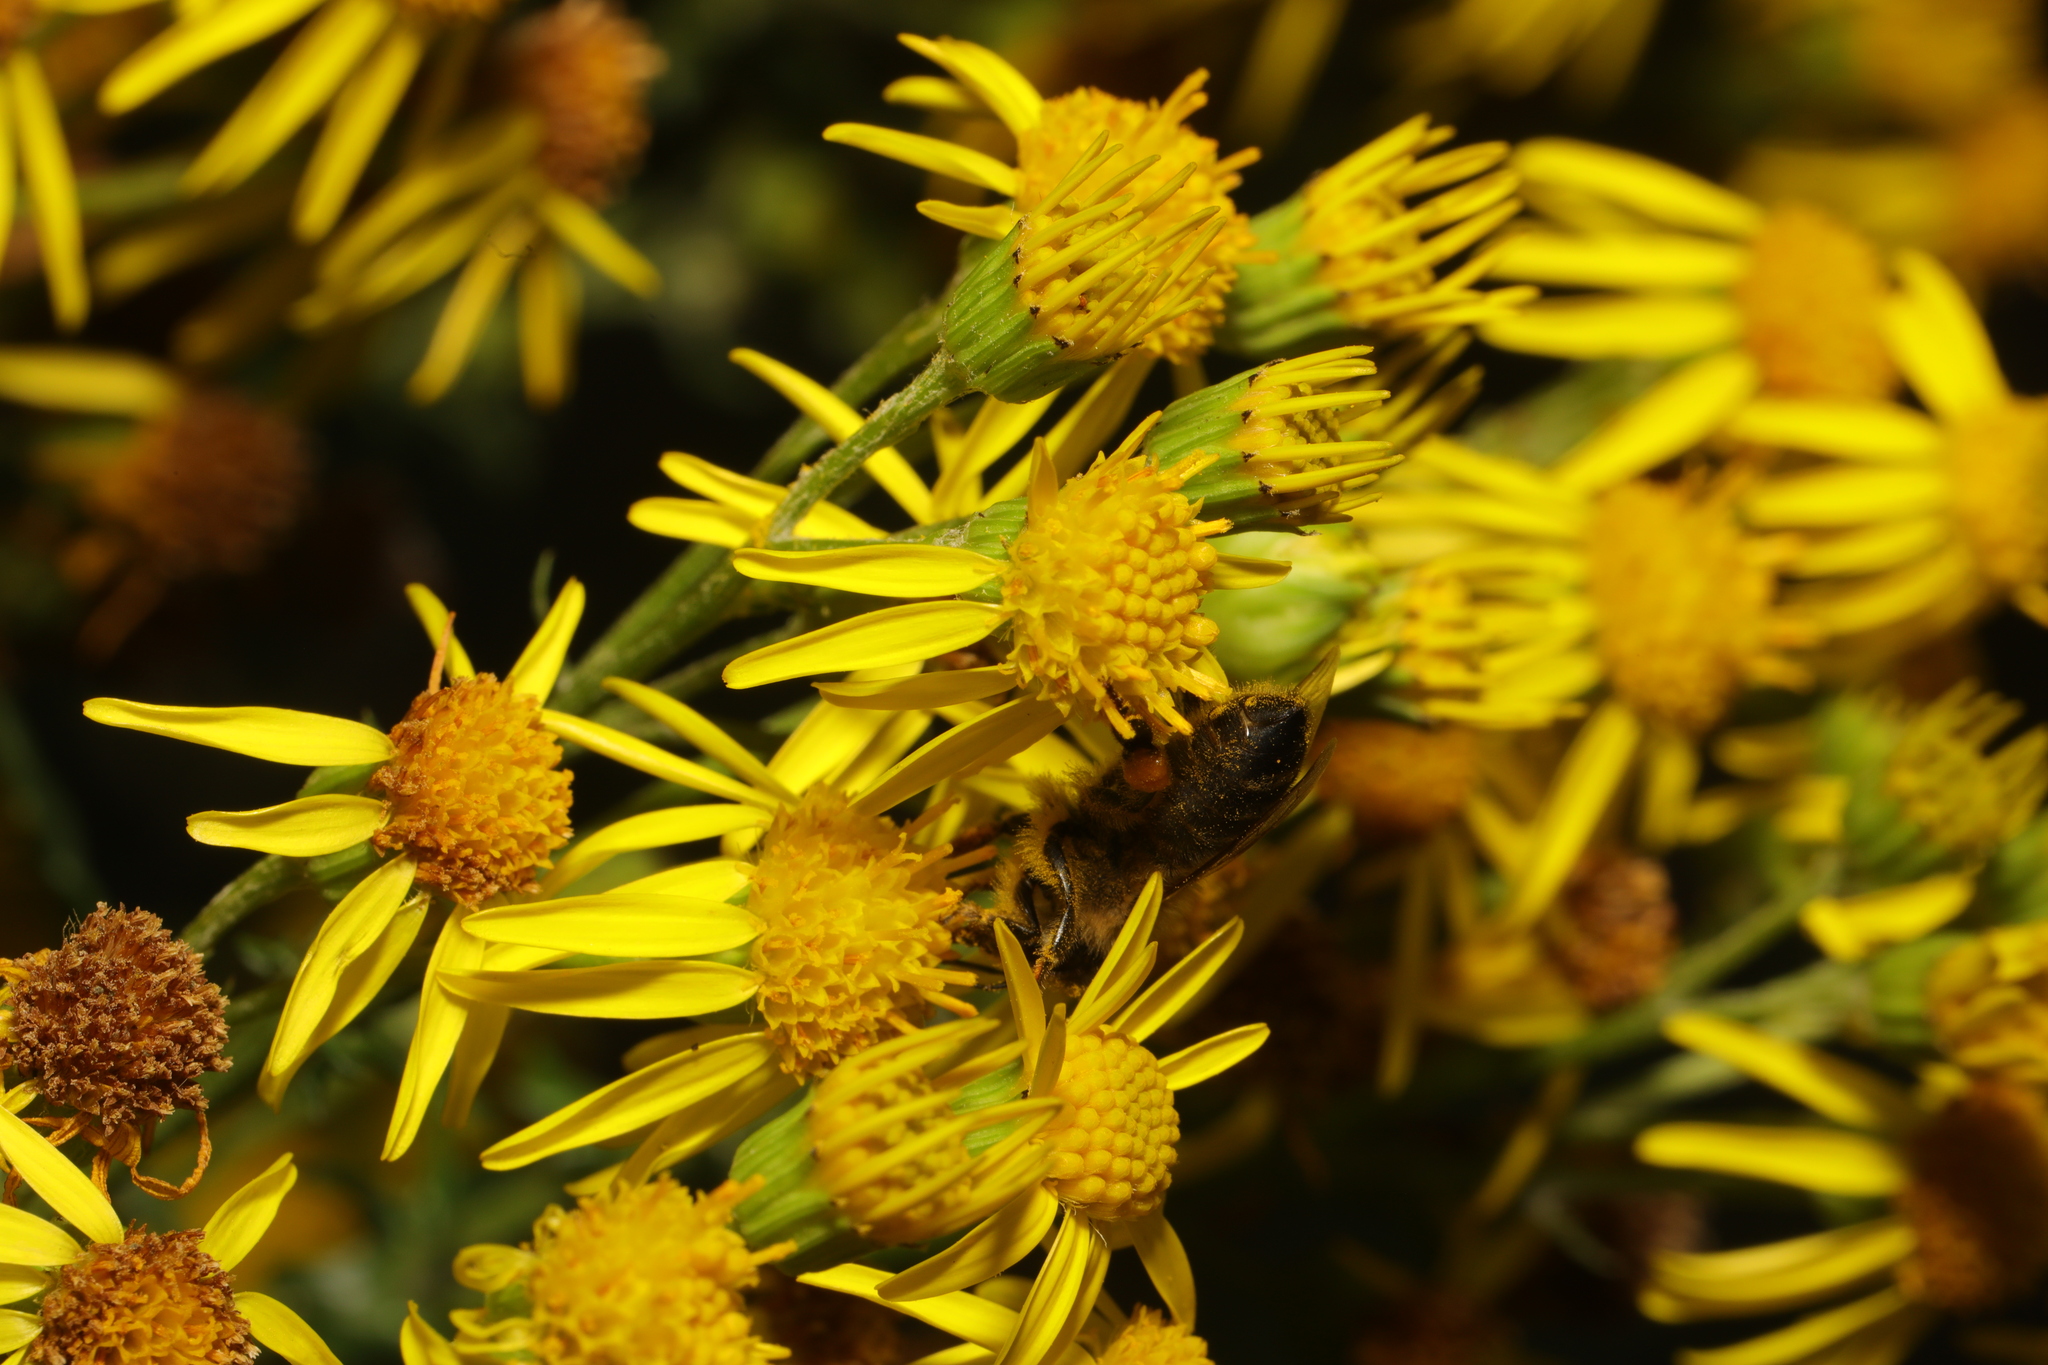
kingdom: Animalia
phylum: Arthropoda
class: Insecta
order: Hymenoptera
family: Apidae
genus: Apis
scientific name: Apis mellifera
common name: Honey bee
